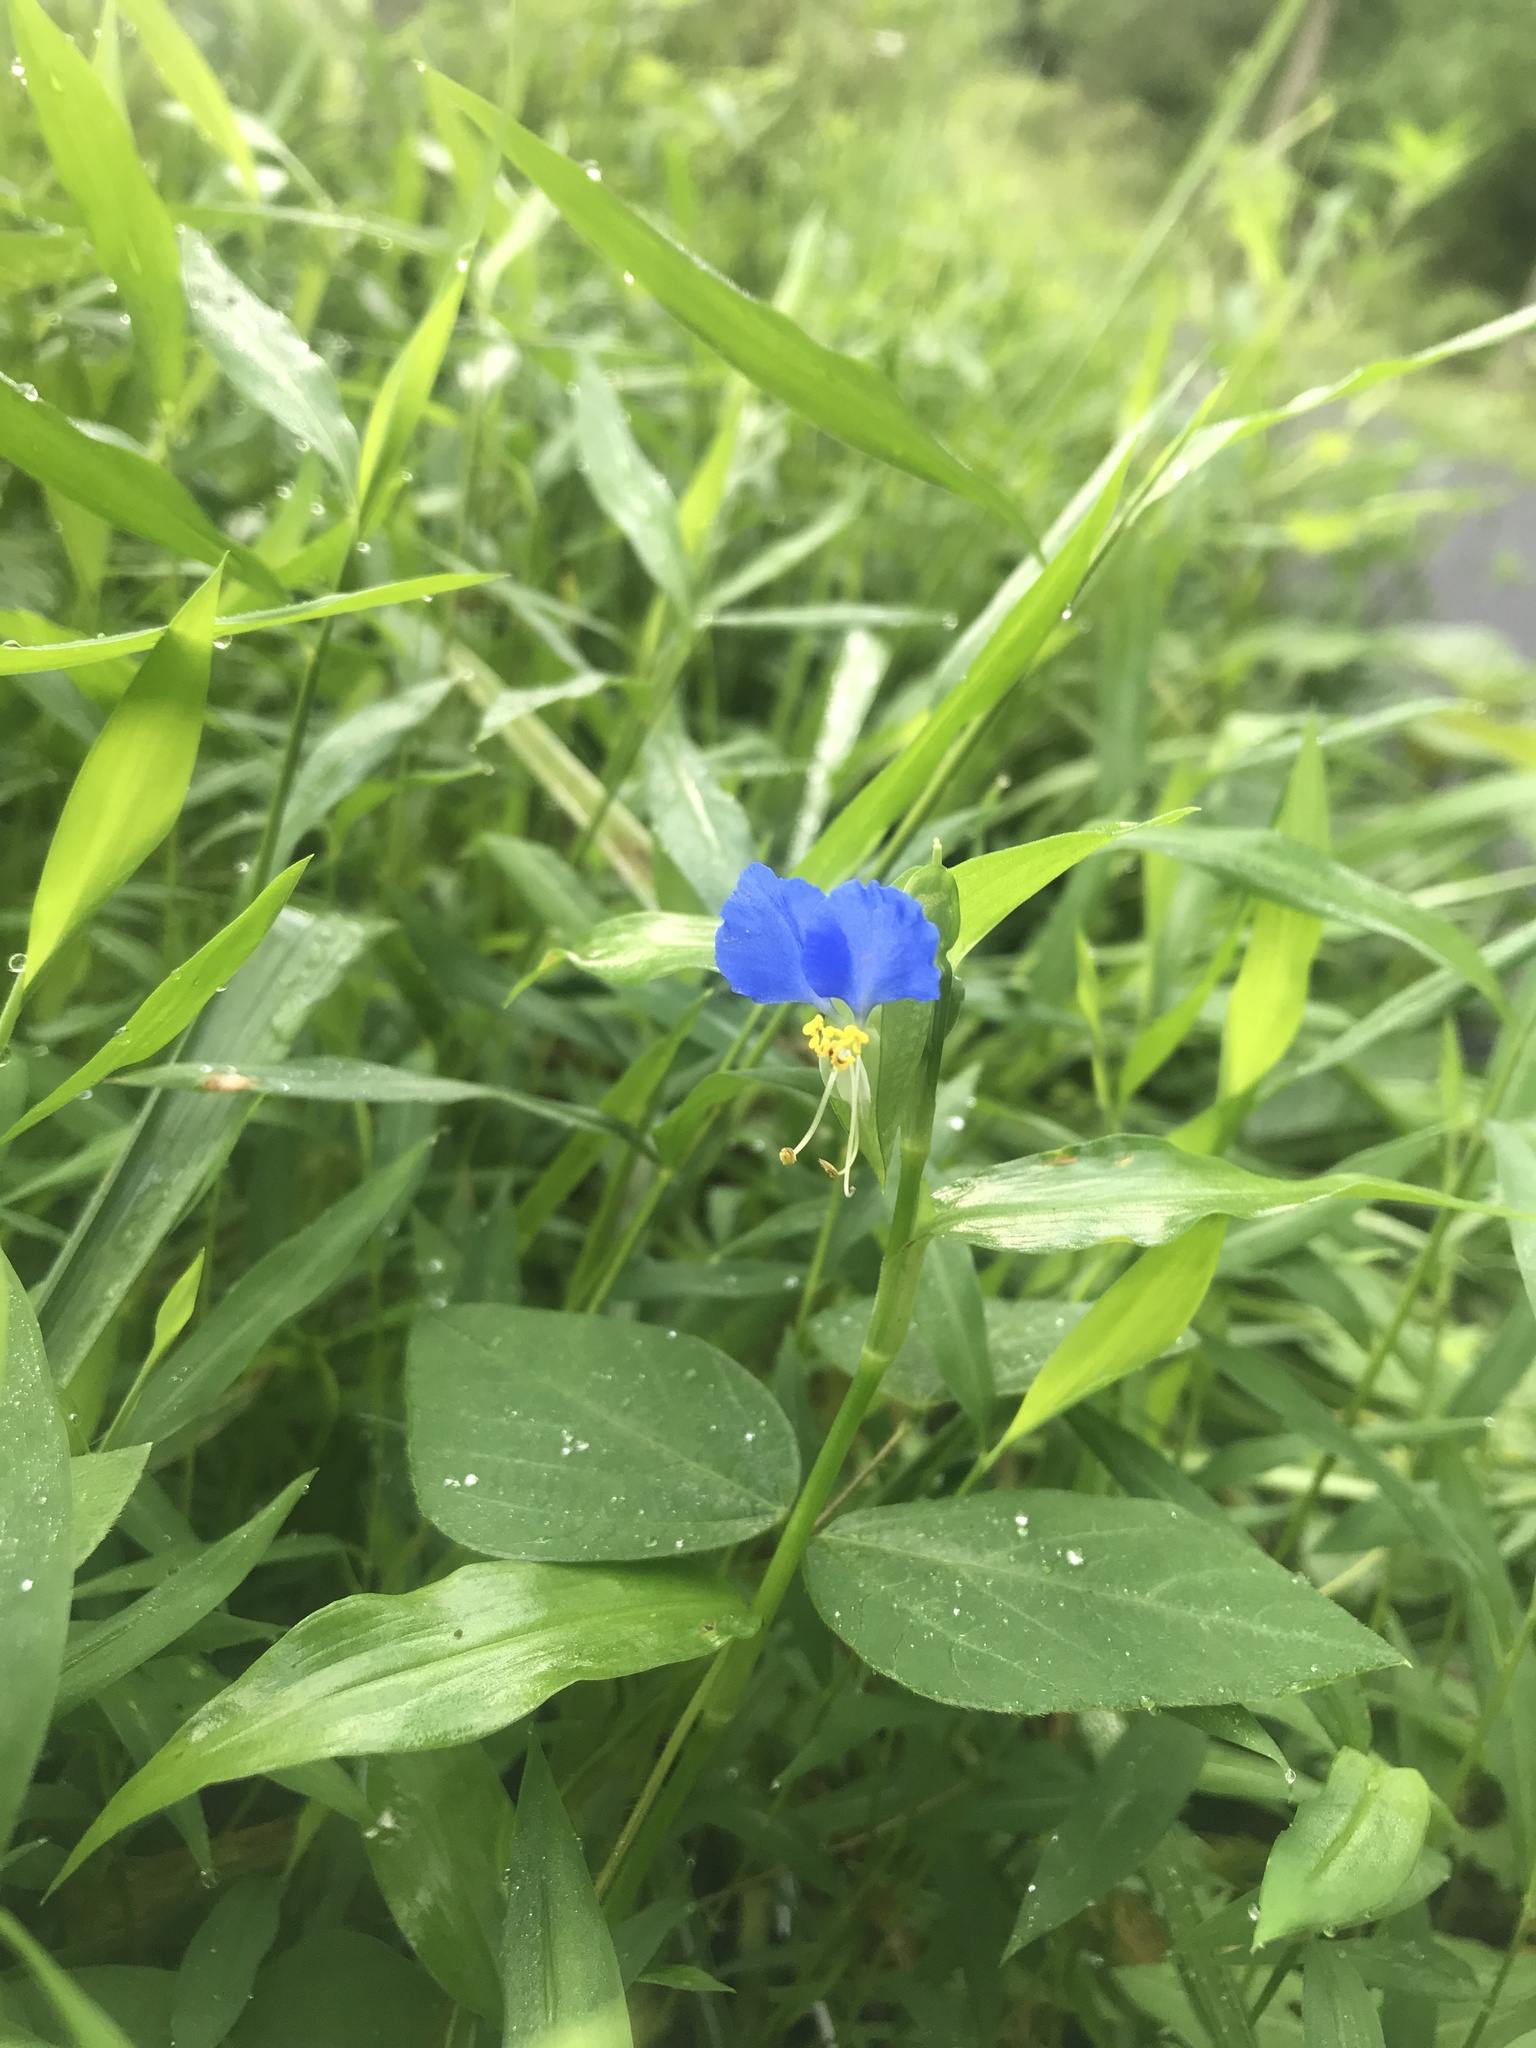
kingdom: Plantae
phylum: Tracheophyta
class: Liliopsida
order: Commelinales
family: Commelinaceae
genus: Commelina
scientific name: Commelina communis
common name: Asiatic dayflower
